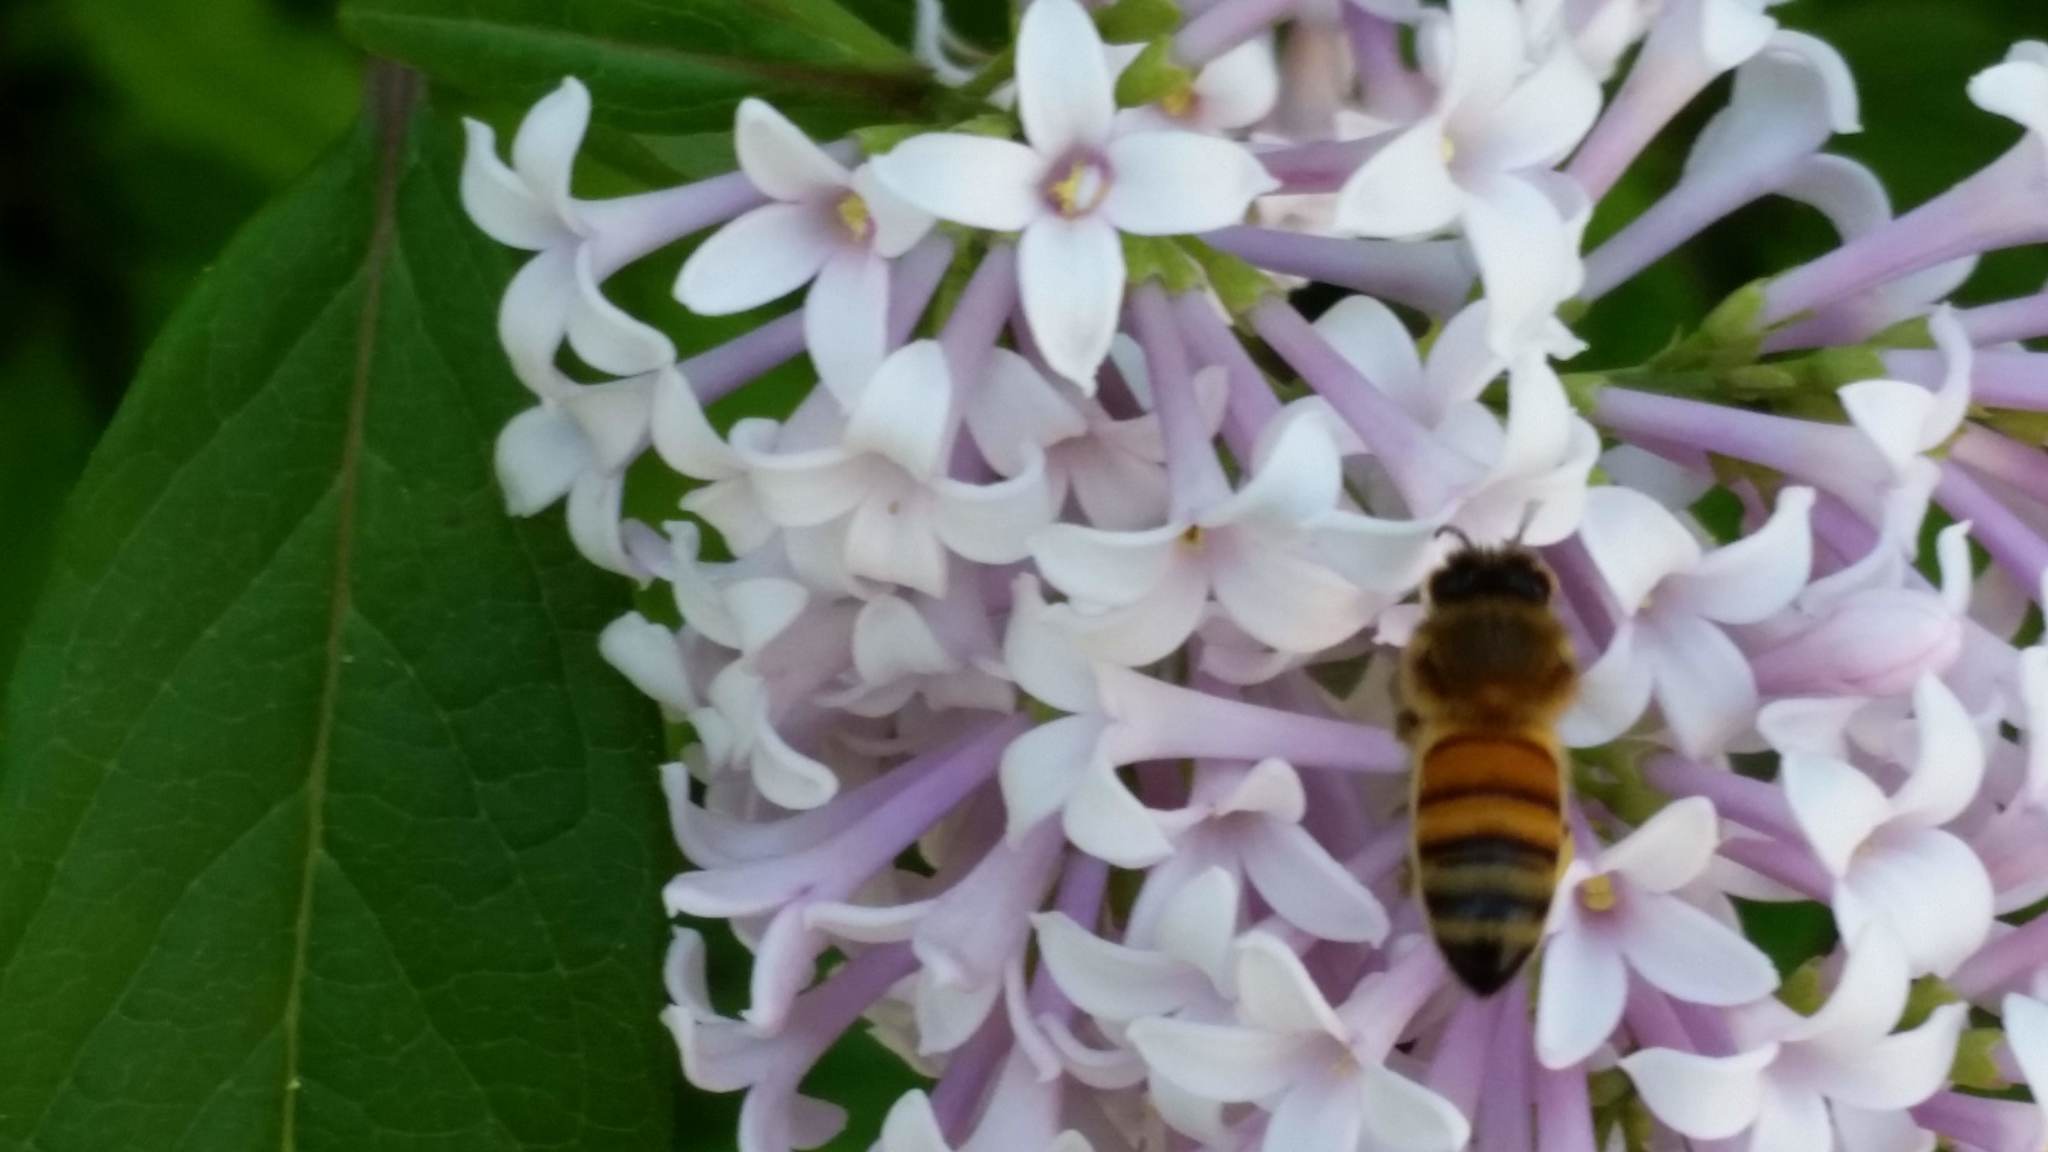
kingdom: Animalia
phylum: Arthropoda
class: Insecta
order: Hymenoptera
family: Apidae
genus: Apis
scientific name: Apis mellifera
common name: Honey bee
